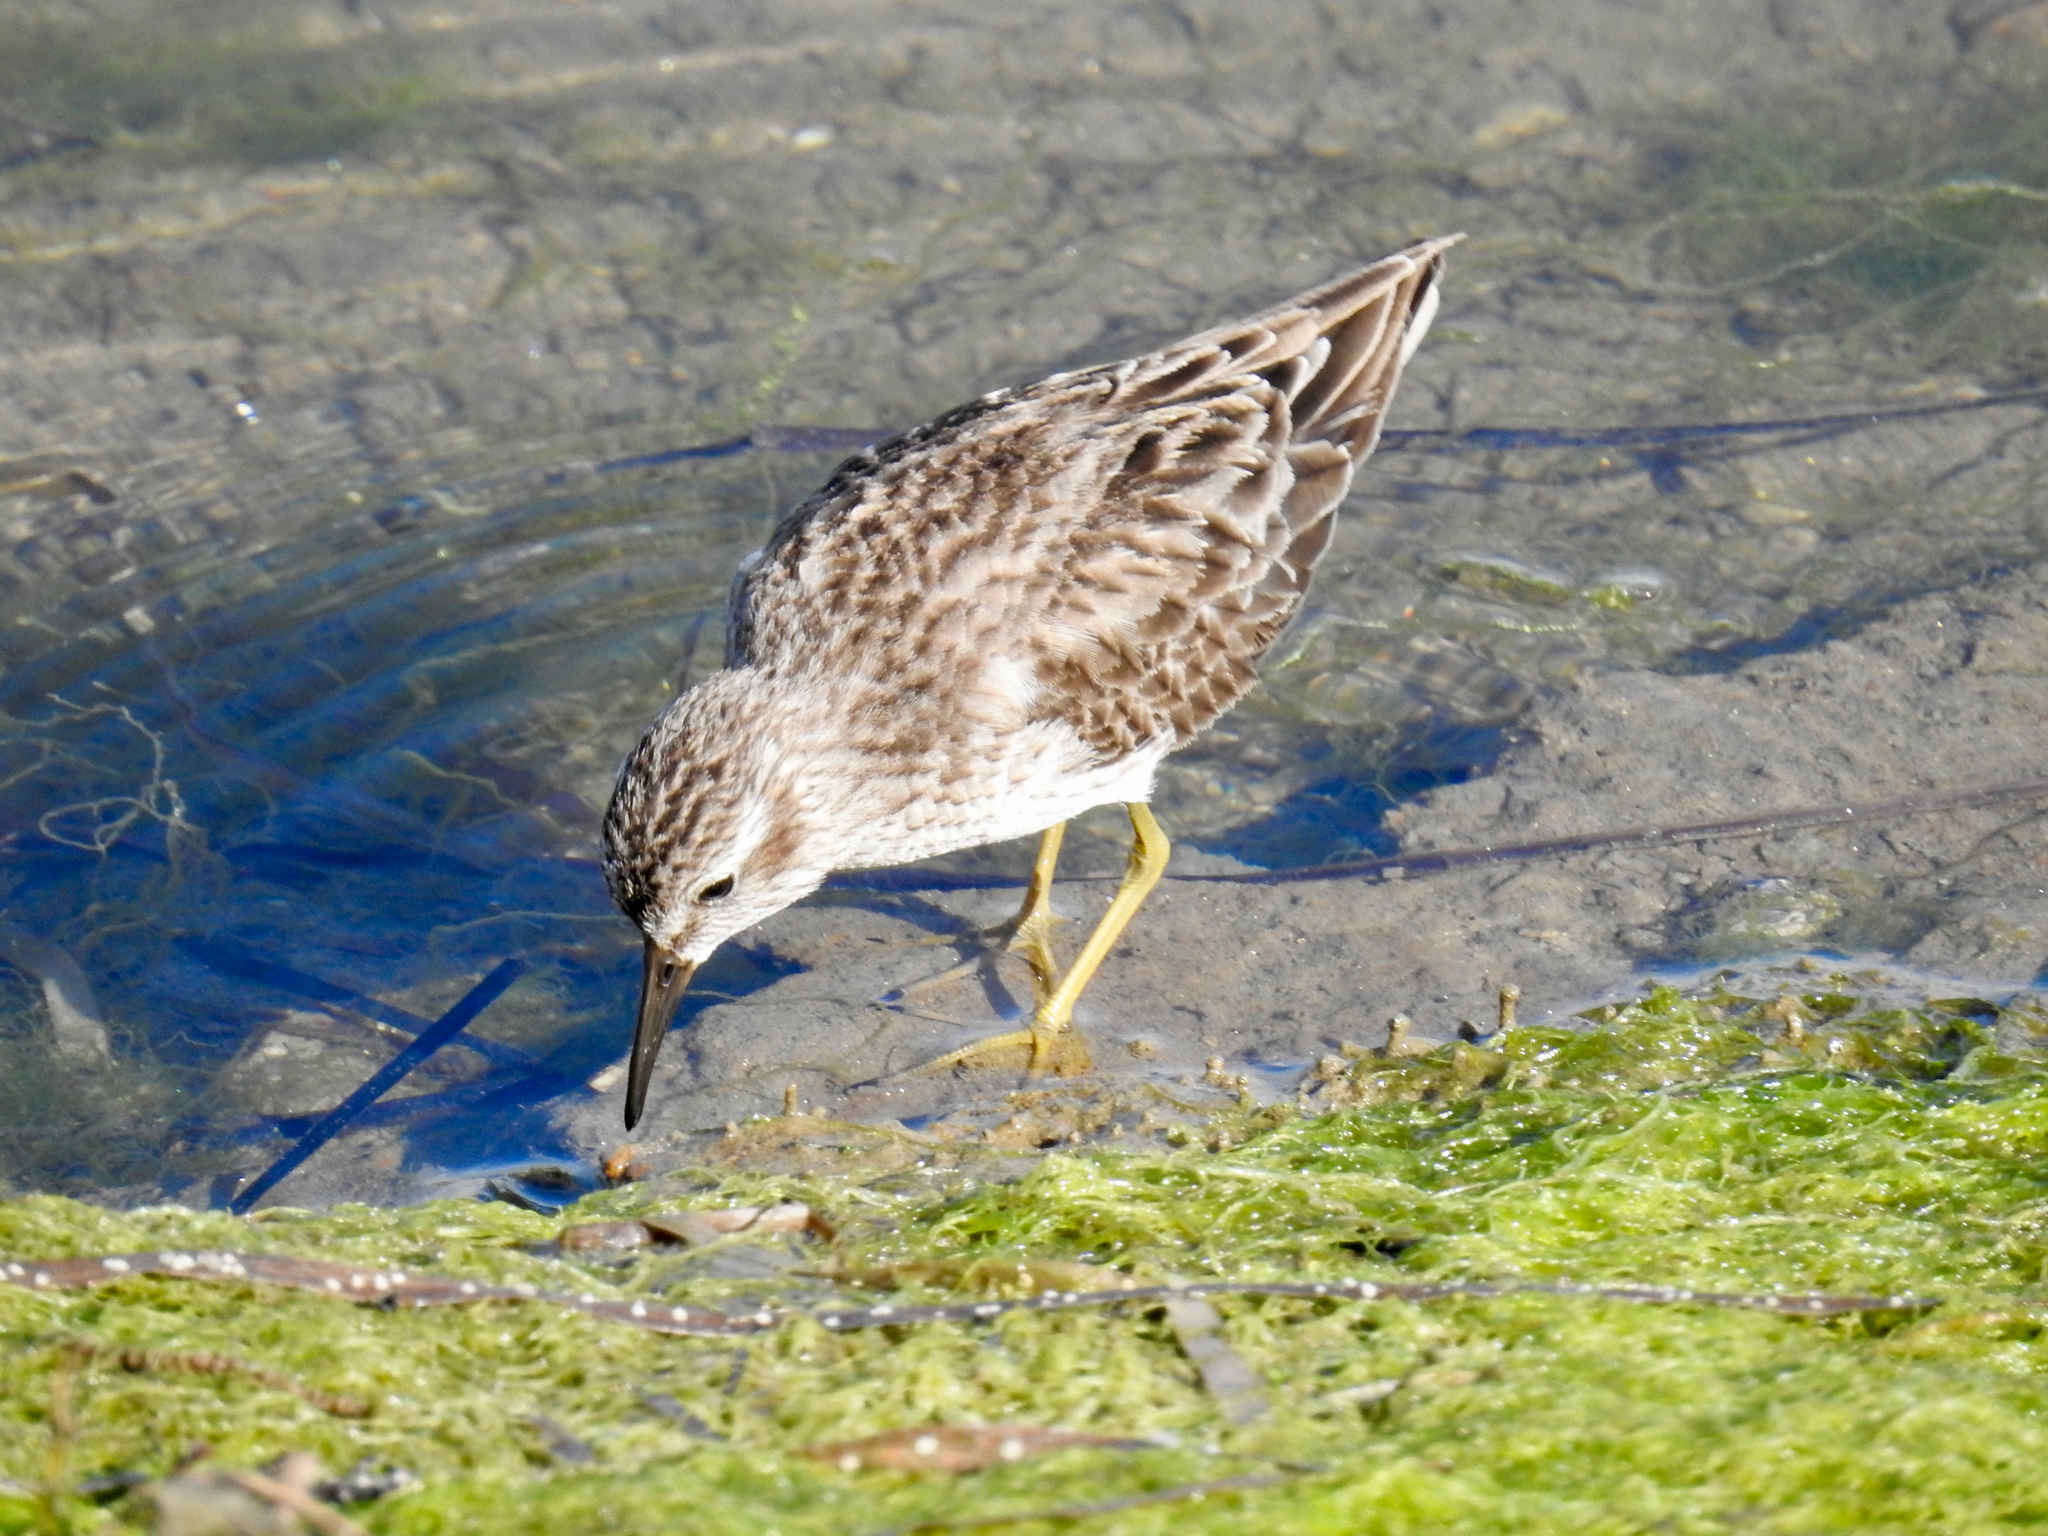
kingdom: Animalia
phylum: Chordata
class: Aves
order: Charadriiformes
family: Scolopacidae
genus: Calidris
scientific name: Calidris minutilla
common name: Least sandpiper
